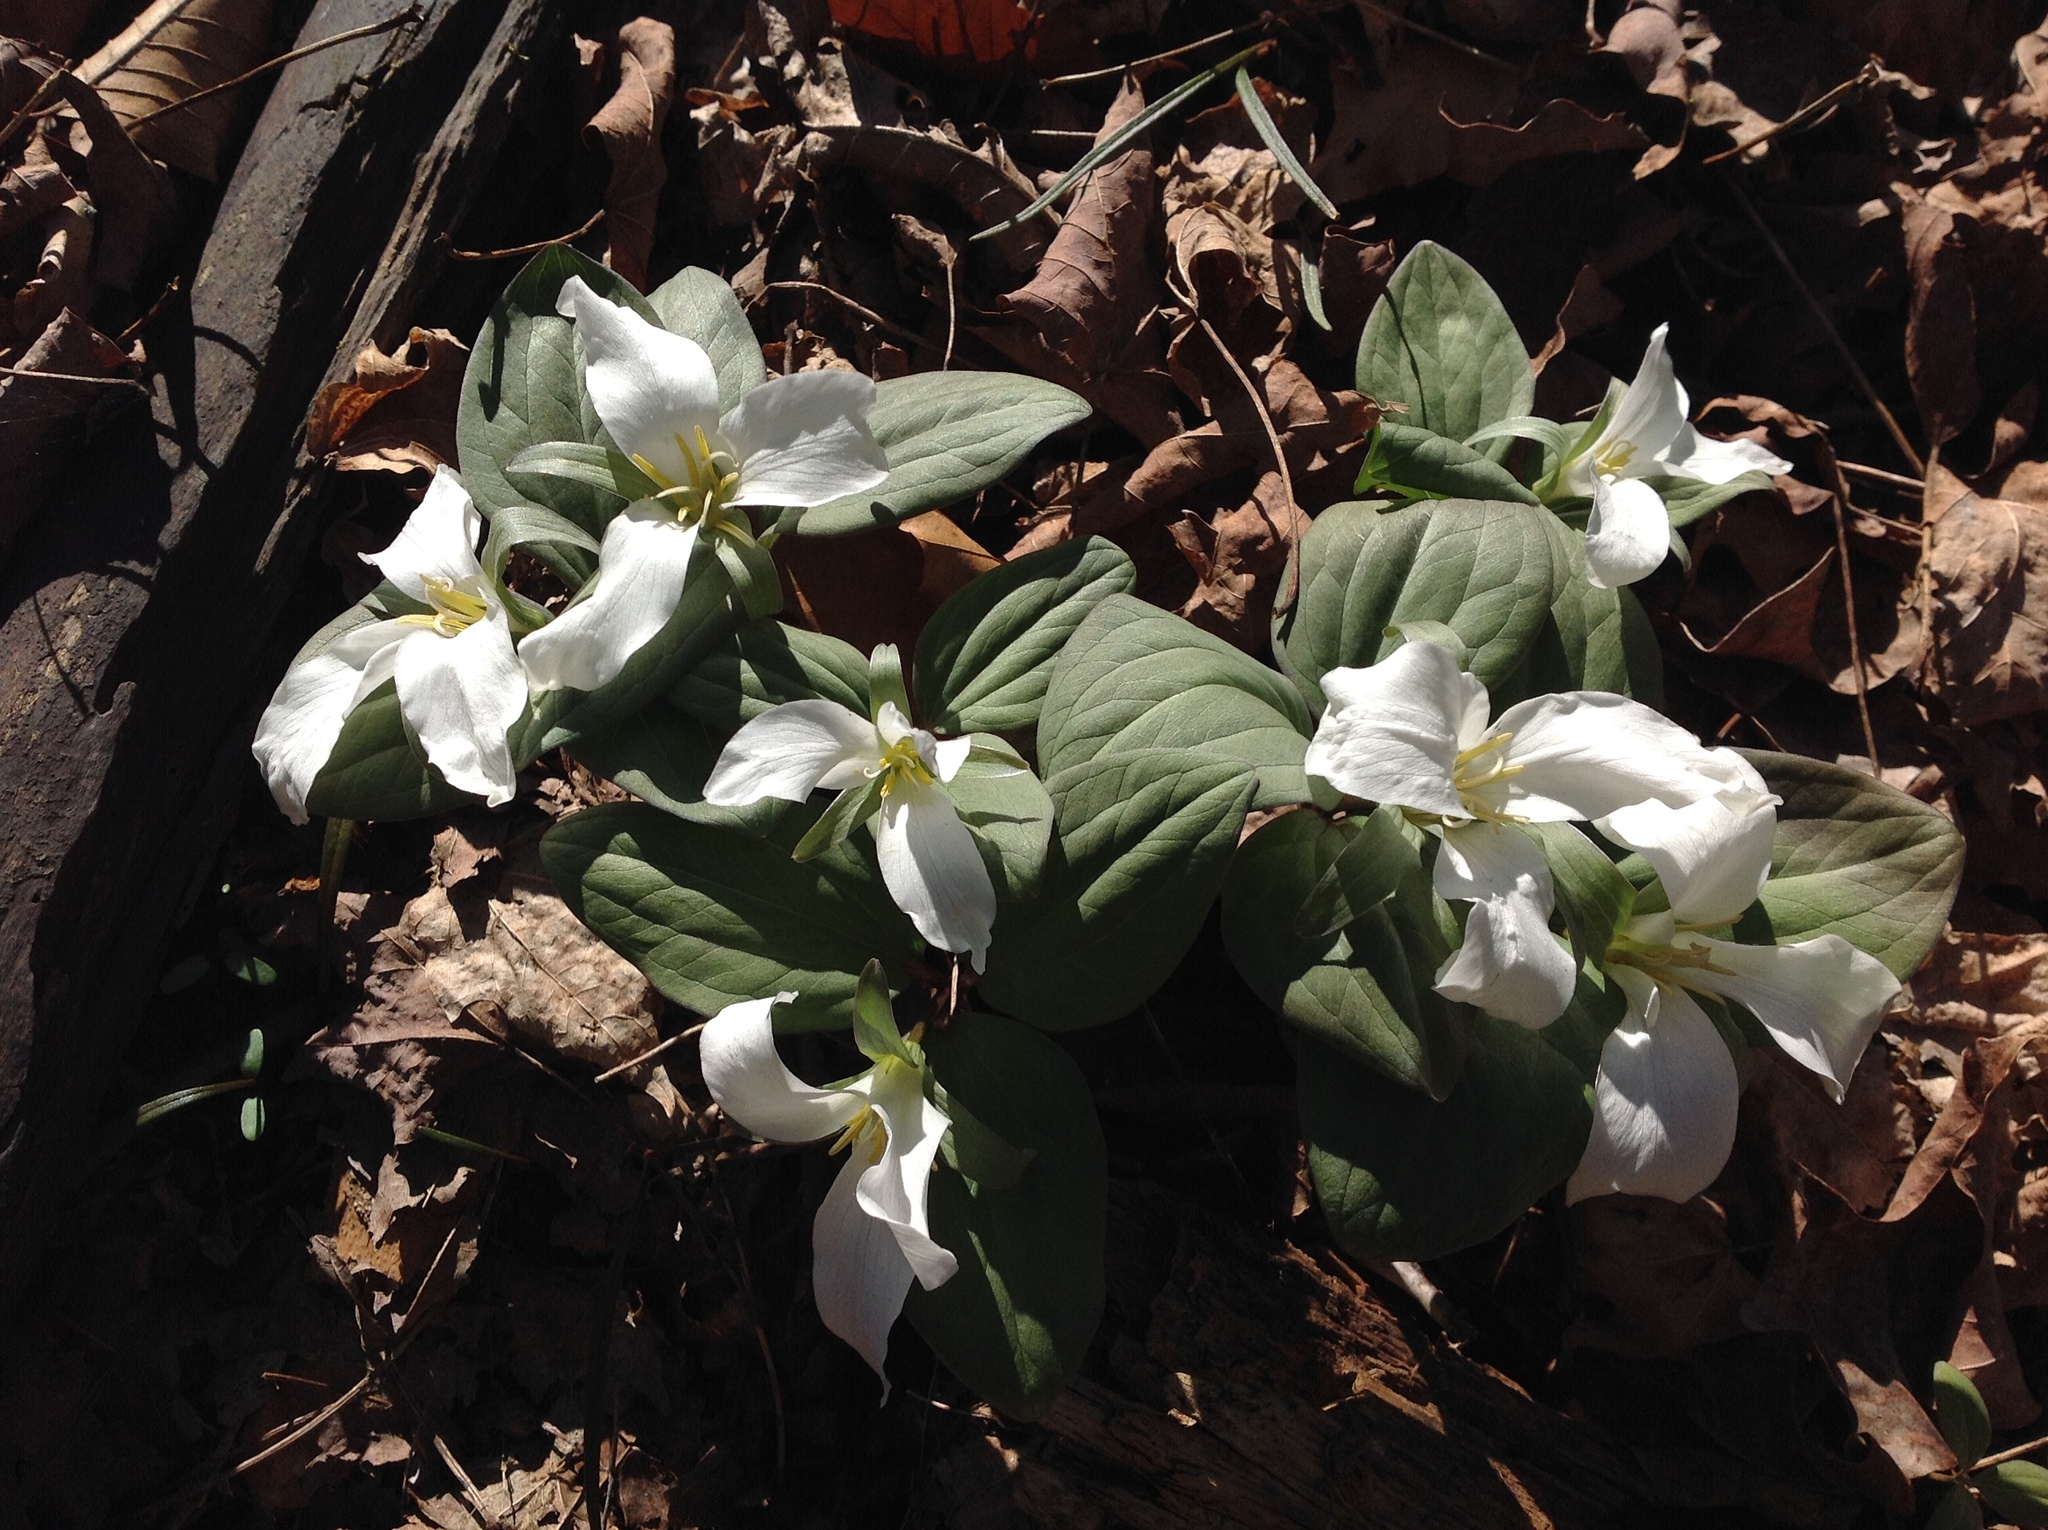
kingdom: Plantae
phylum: Tracheophyta
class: Liliopsida
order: Liliales
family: Melanthiaceae
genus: Trillium
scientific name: Trillium nivale
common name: Dwarf white trillium
